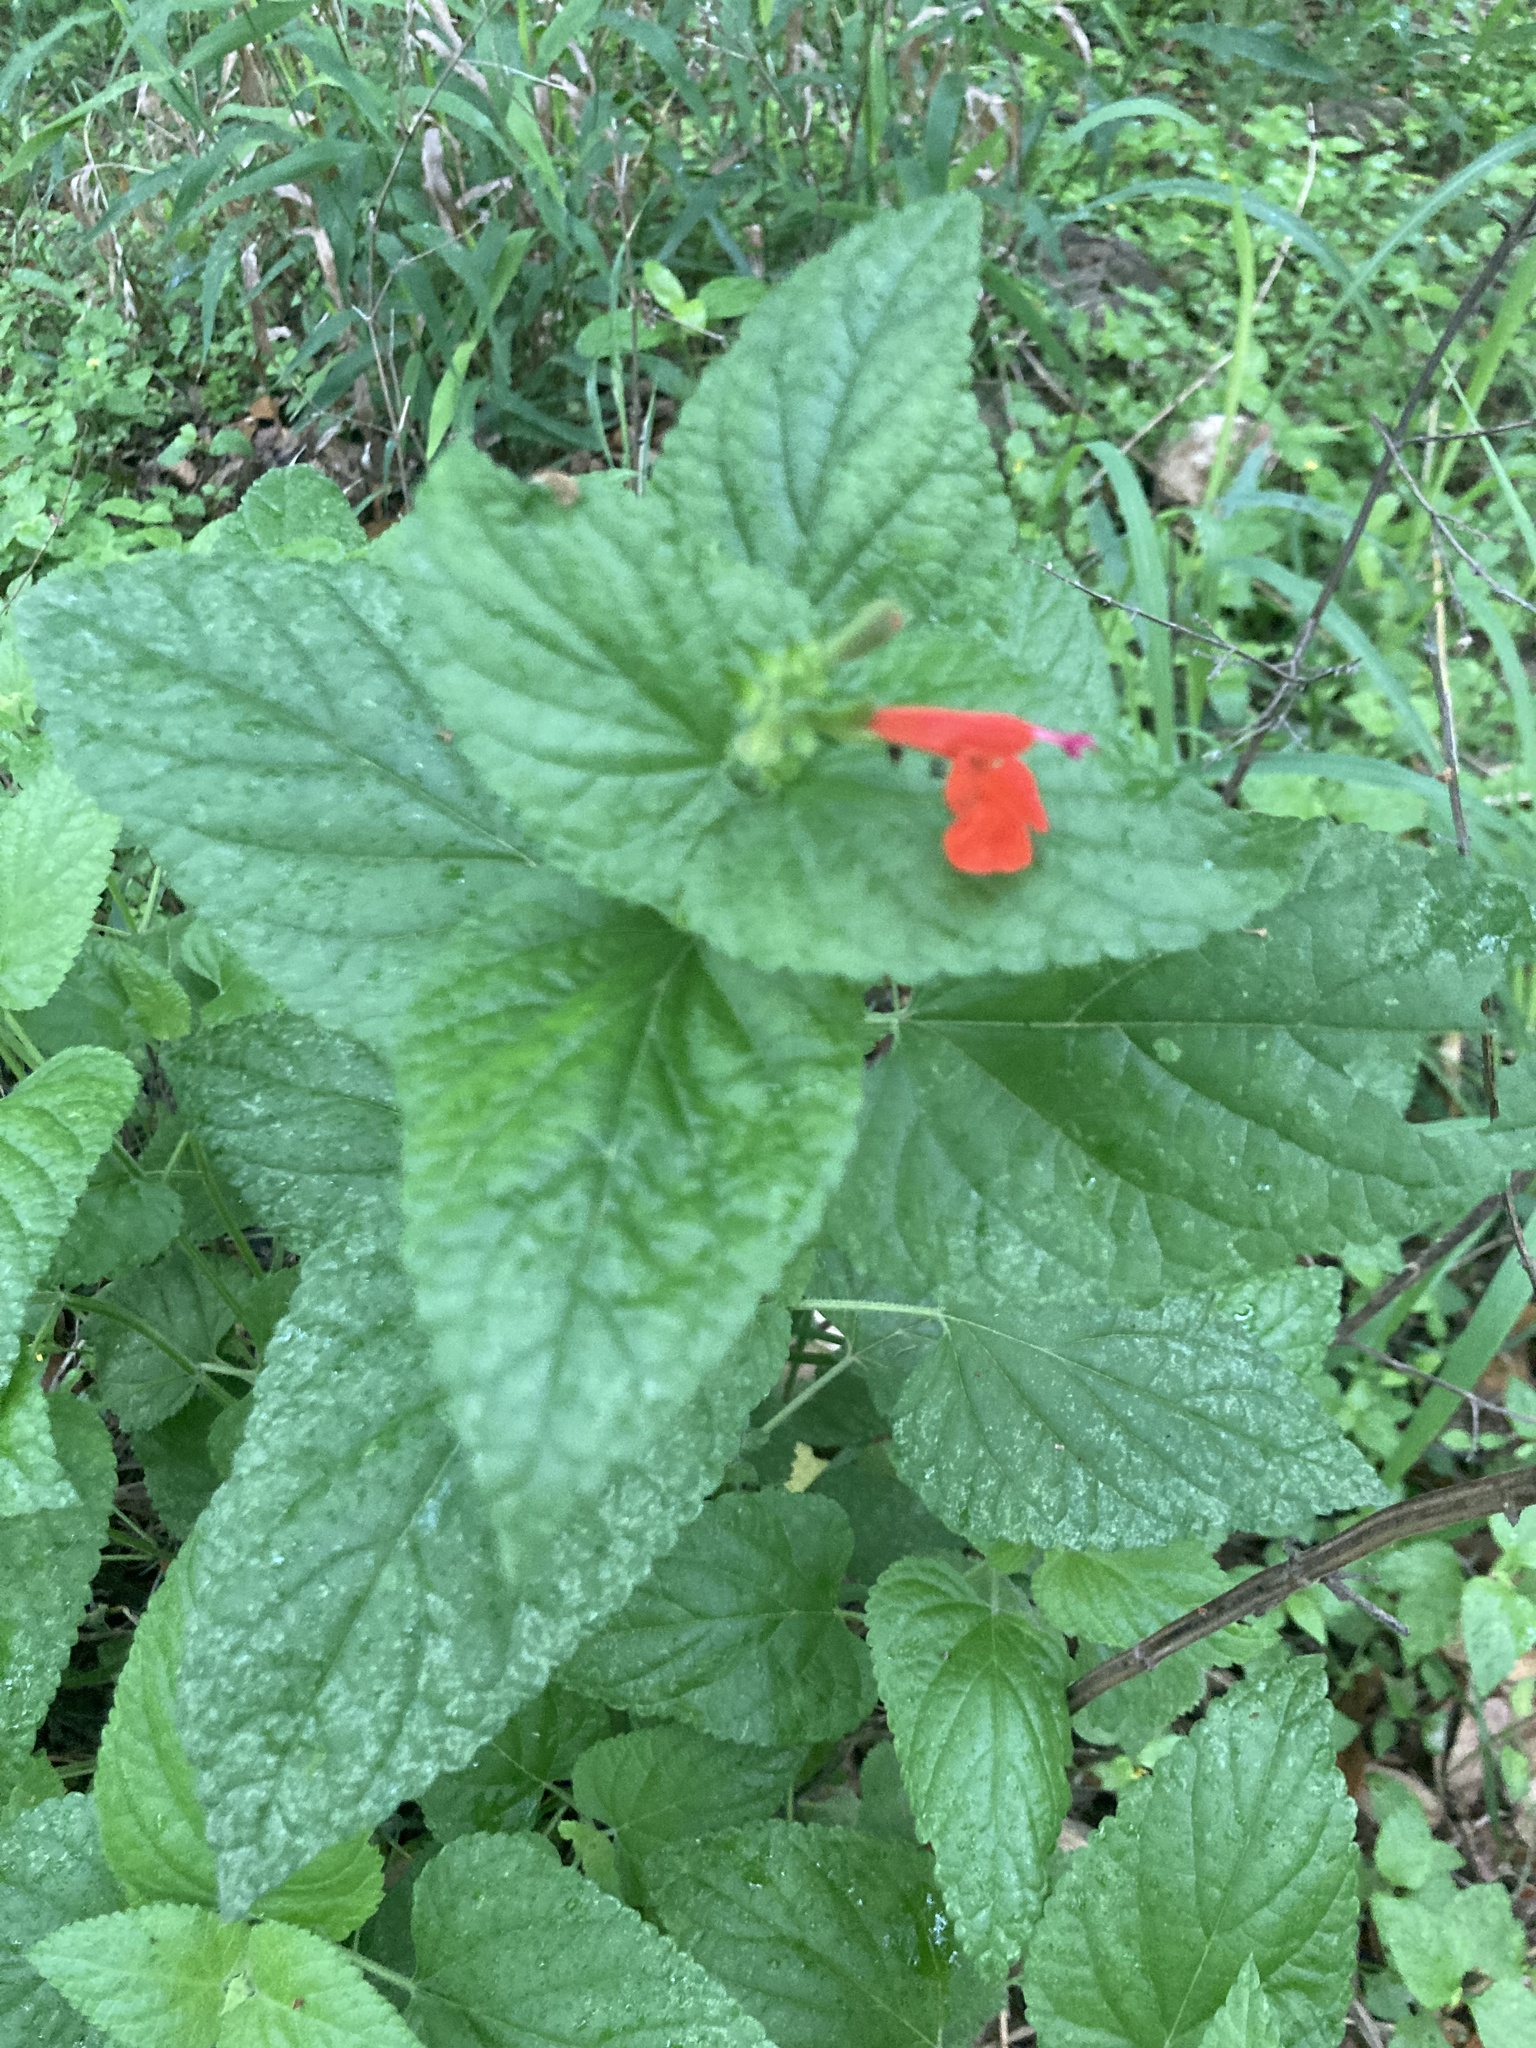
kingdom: Plantae
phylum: Tracheophyta
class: Magnoliopsida
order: Lamiales
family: Lamiaceae
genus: Salvia
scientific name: Salvia coccinea
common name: Blood sage
